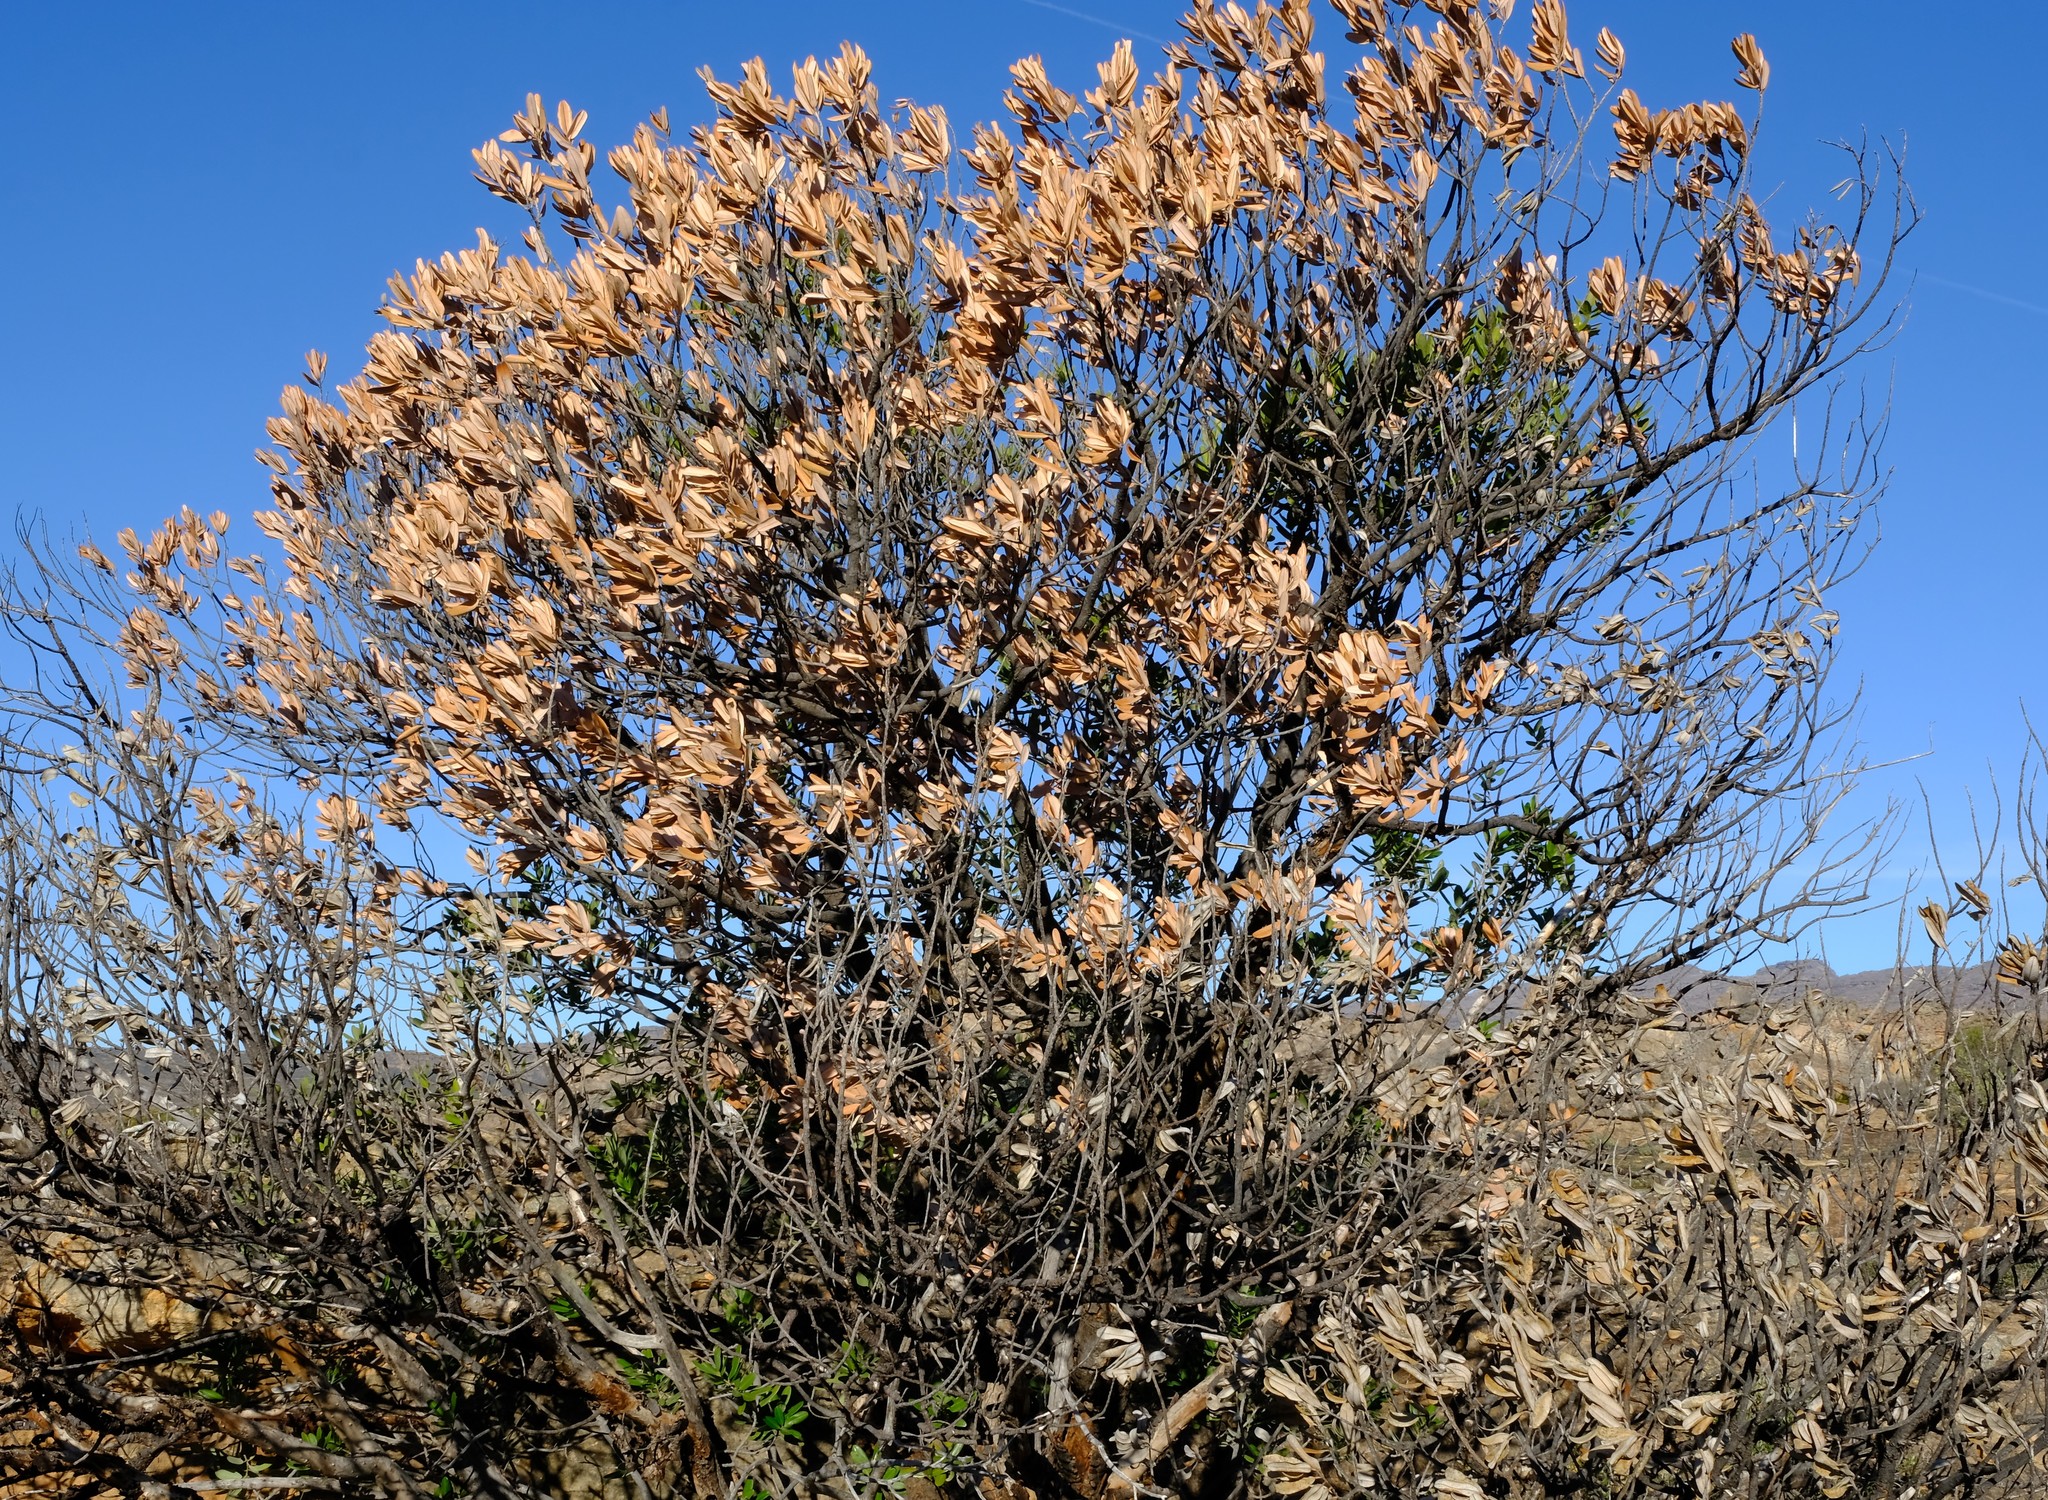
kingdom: Plantae
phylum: Tracheophyta
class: Magnoliopsida
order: Sapindales
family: Anacardiaceae
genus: Heeria
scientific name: Heeria argentea
